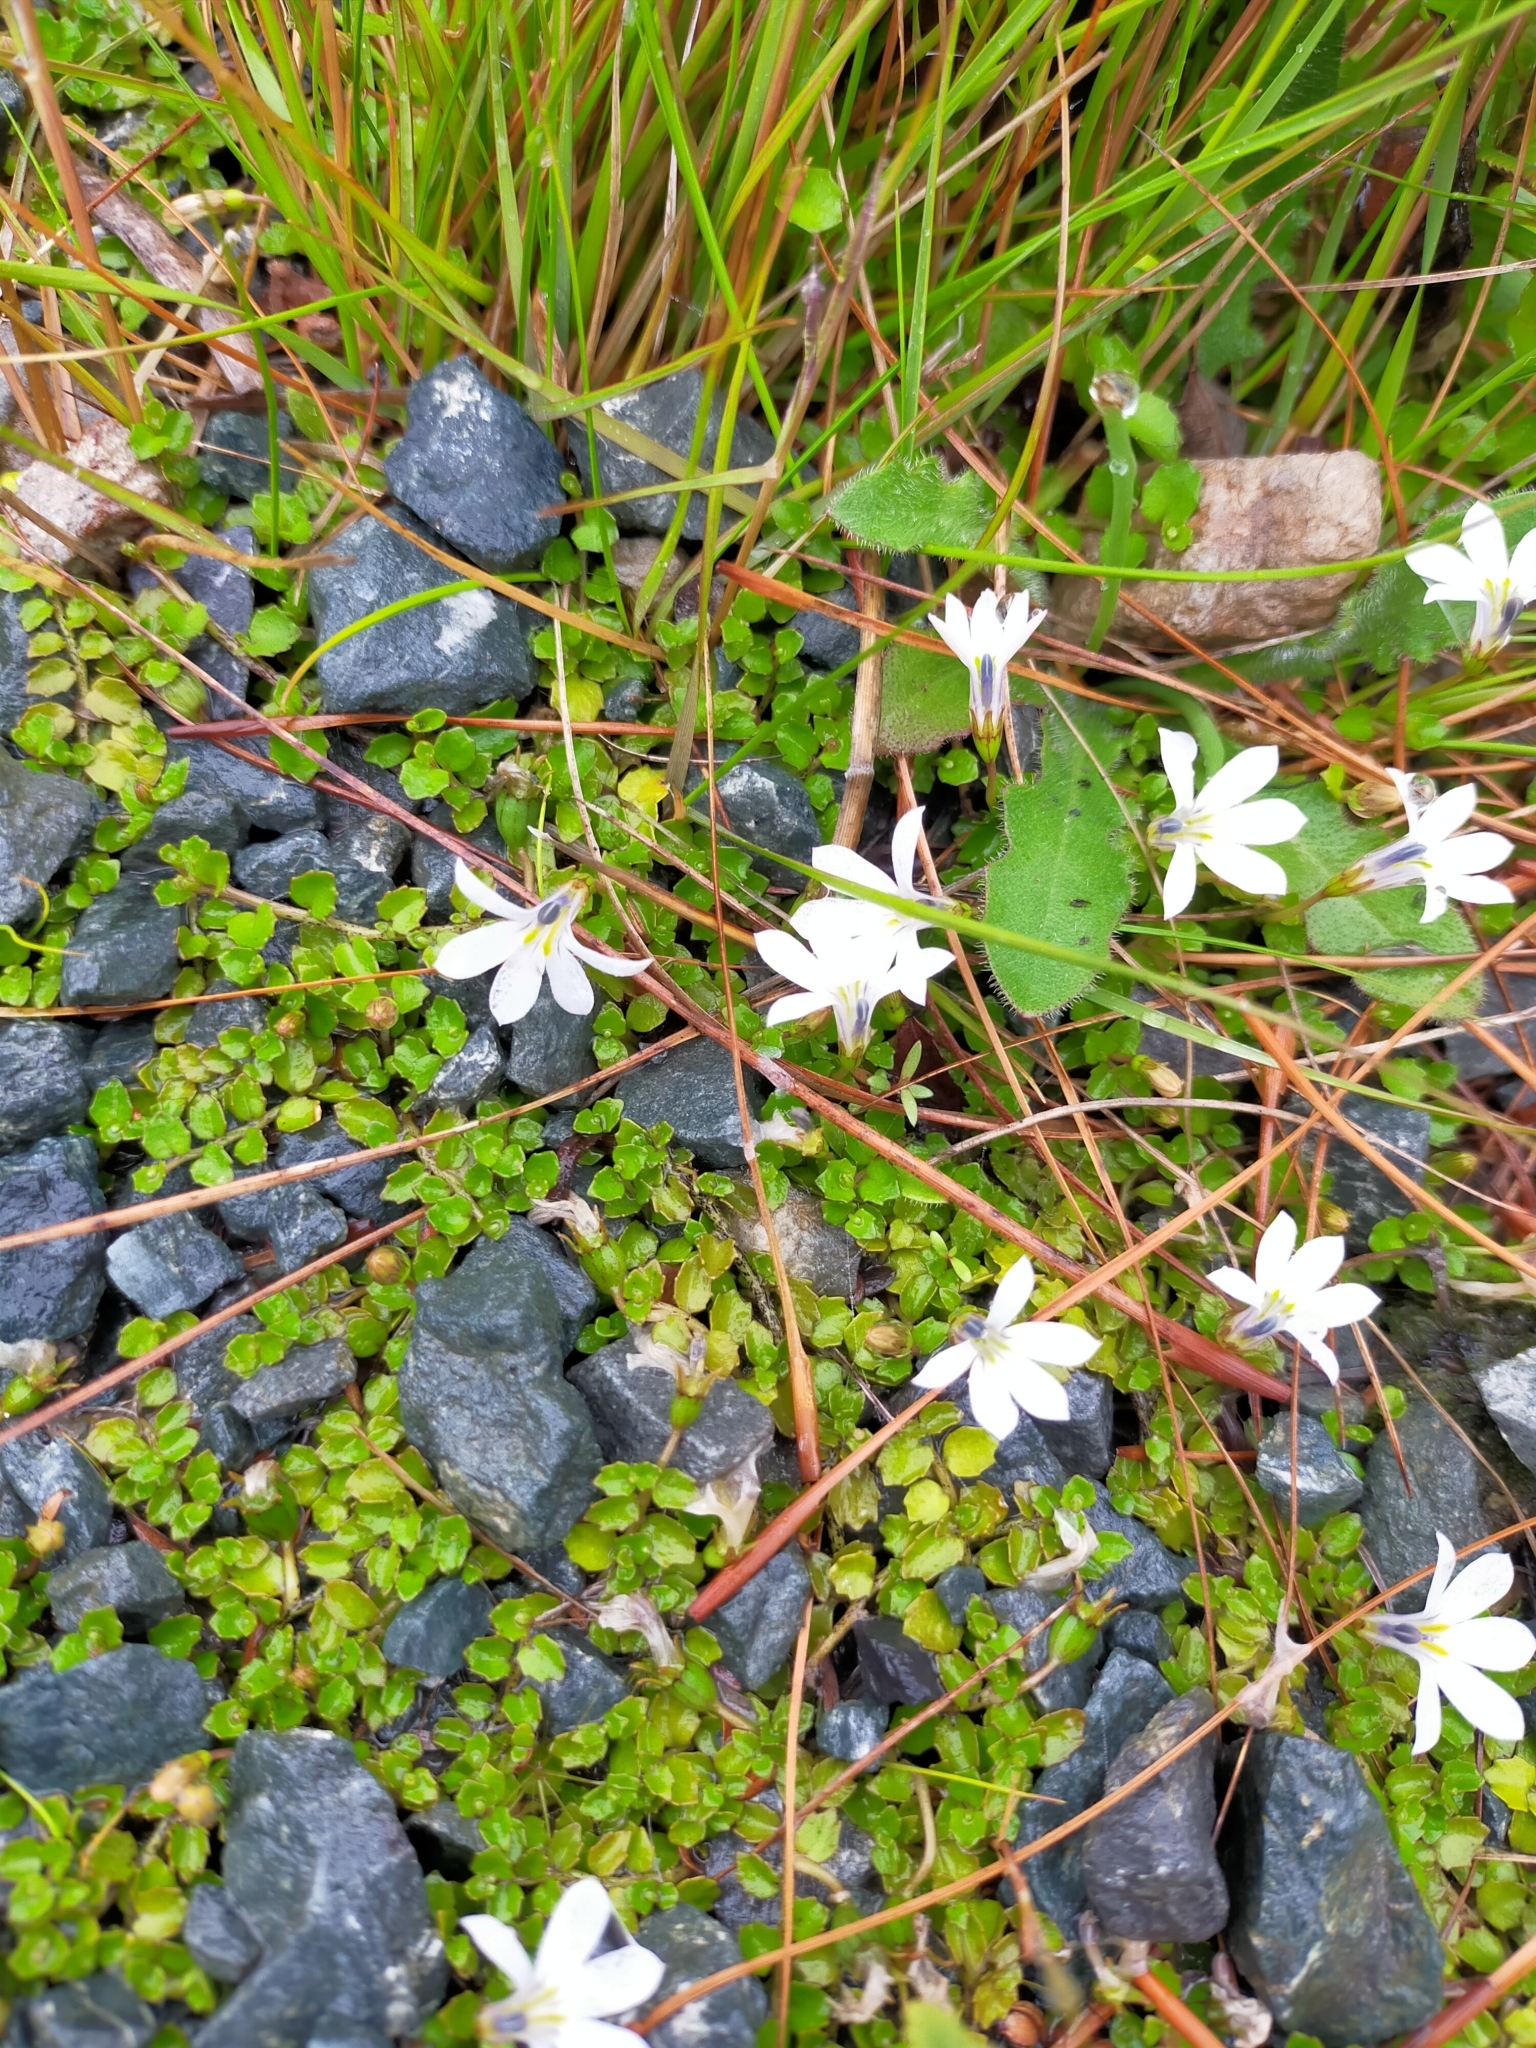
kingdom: Plantae
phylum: Tracheophyta
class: Magnoliopsida
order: Asterales
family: Campanulaceae
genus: Lobelia
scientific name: Lobelia angulata
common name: Lawn lobelia
